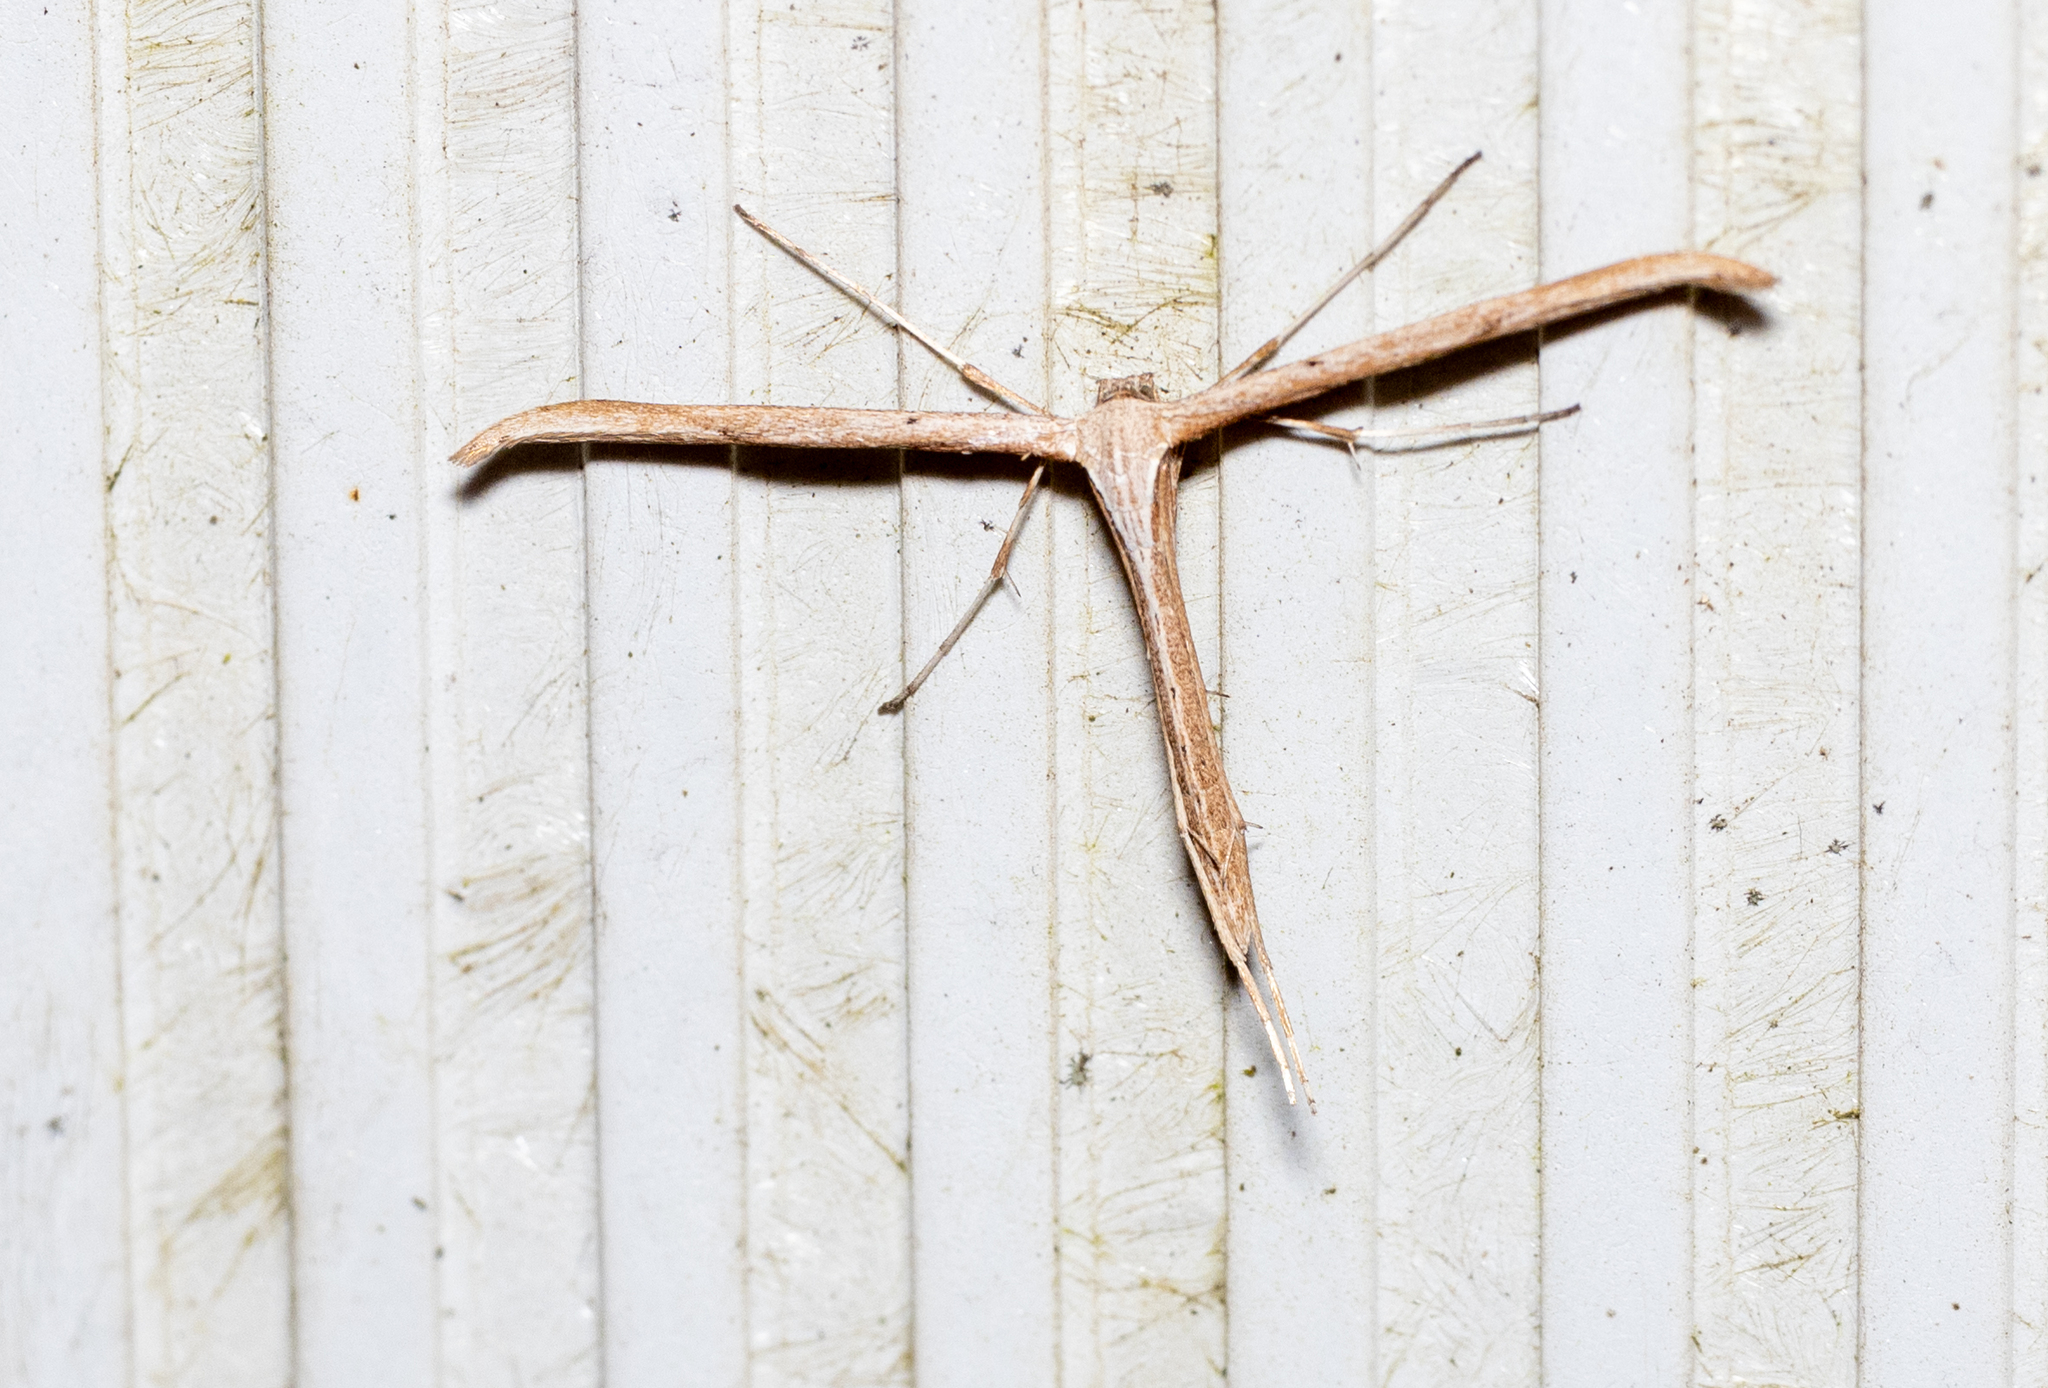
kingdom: Animalia
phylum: Arthropoda
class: Insecta
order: Lepidoptera
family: Pterophoridae
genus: Emmelina
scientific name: Emmelina monodactyla
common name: Common plume
